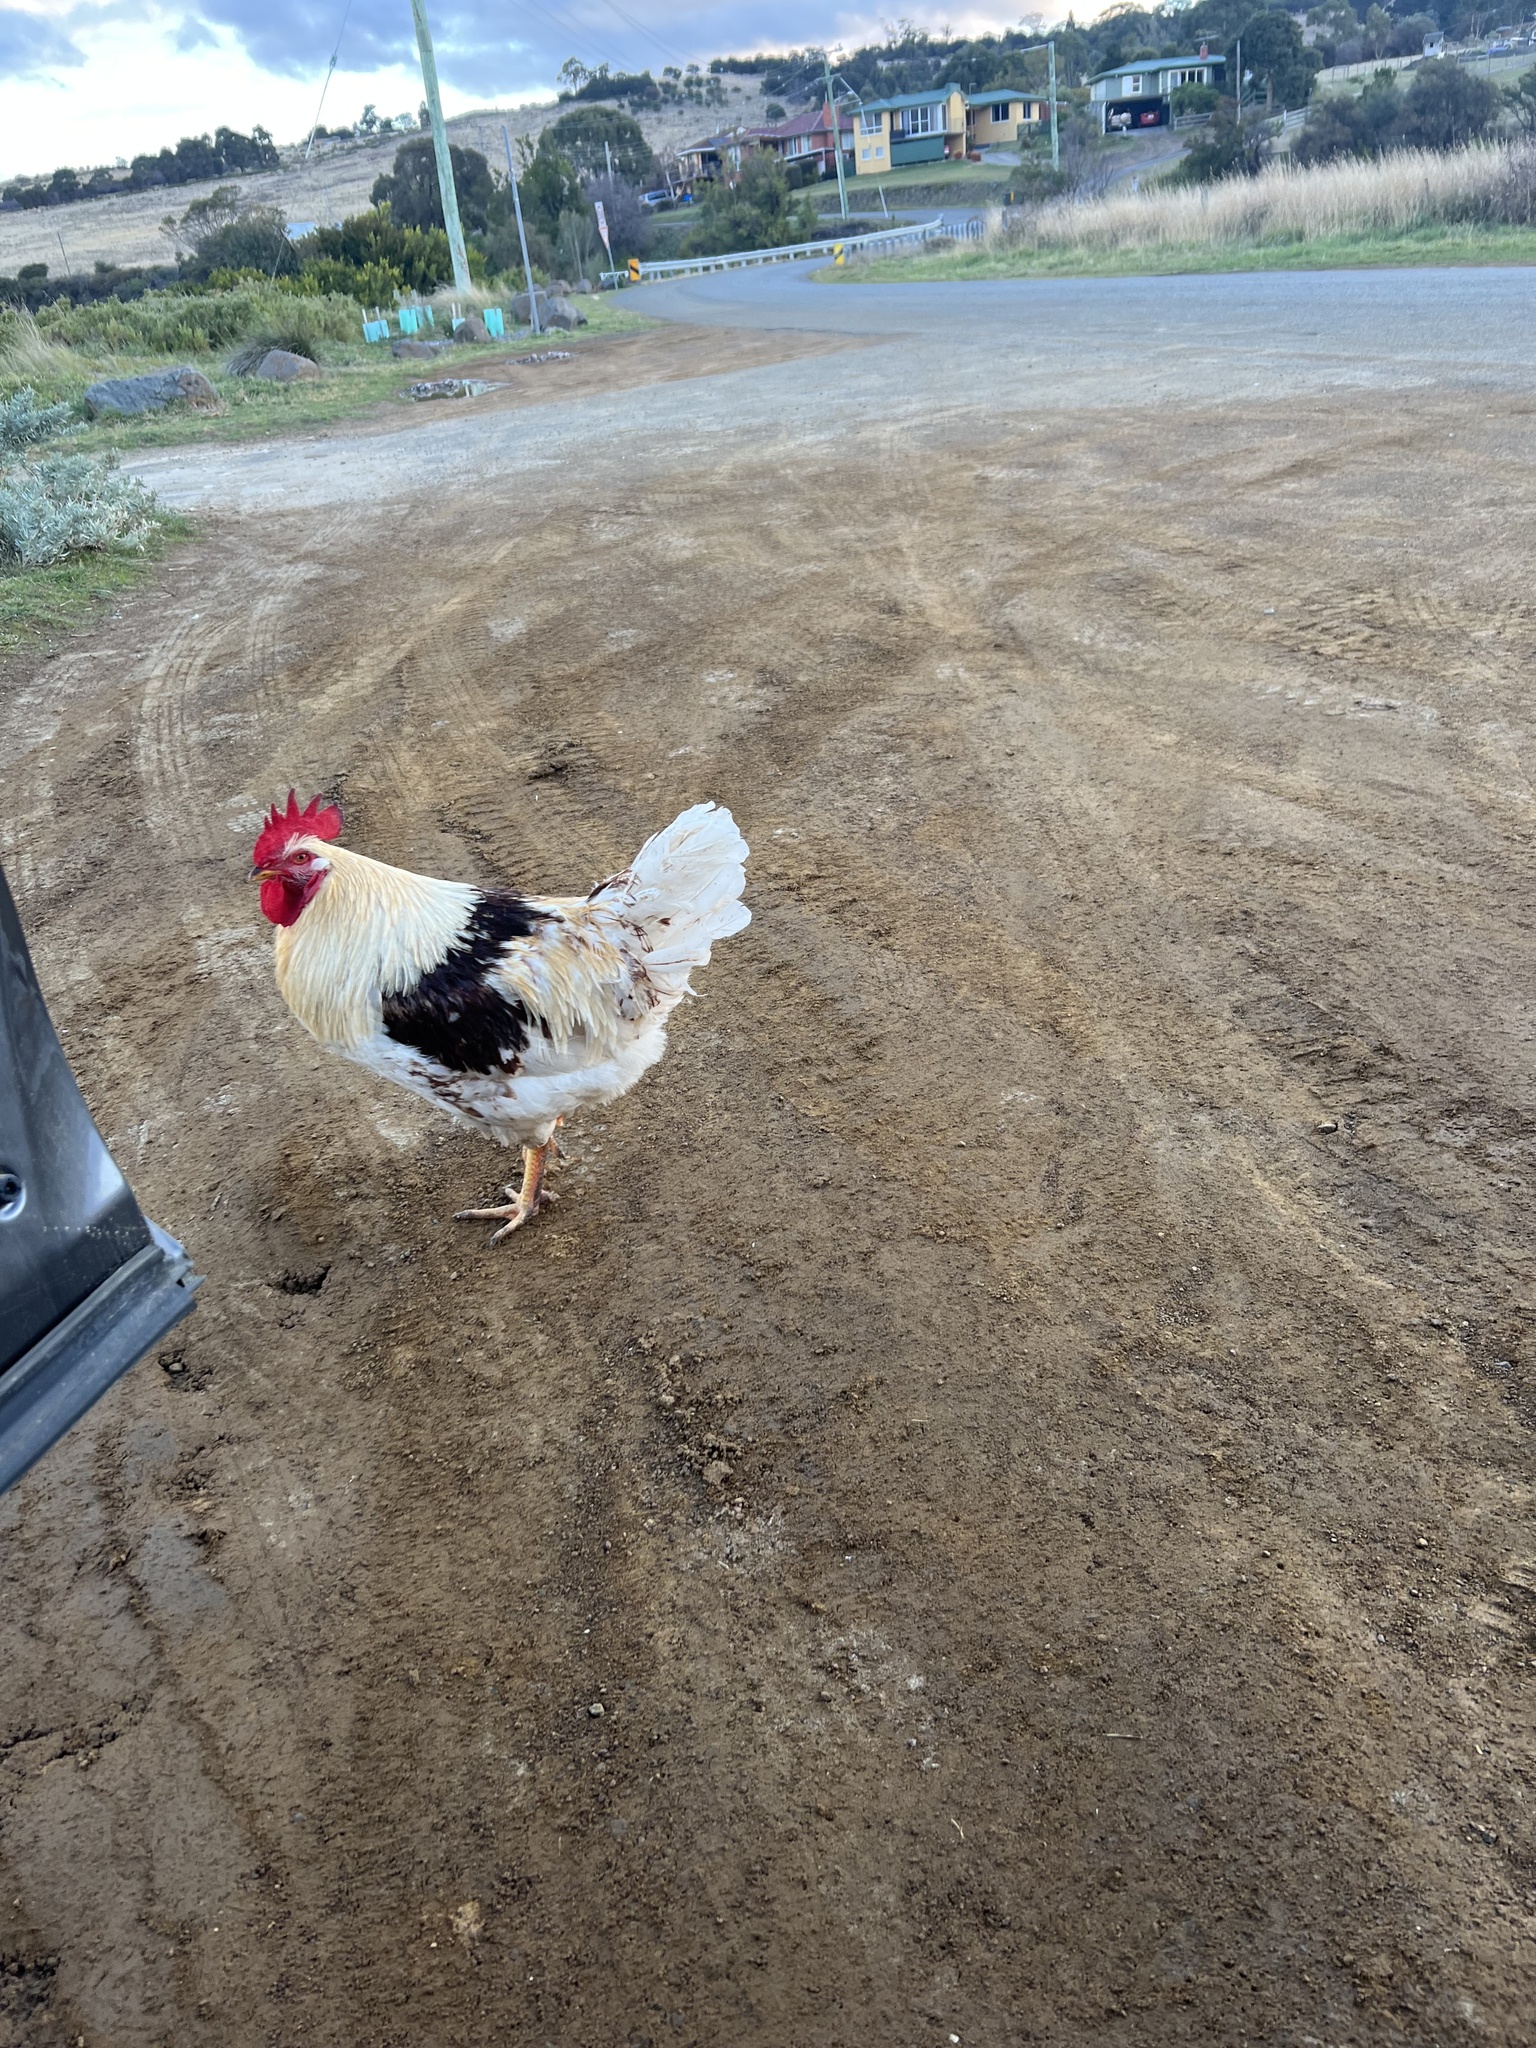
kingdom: Animalia
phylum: Chordata
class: Aves
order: Galliformes
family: Phasianidae
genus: Gallus
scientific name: Gallus gallus
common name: Red junglefowl
